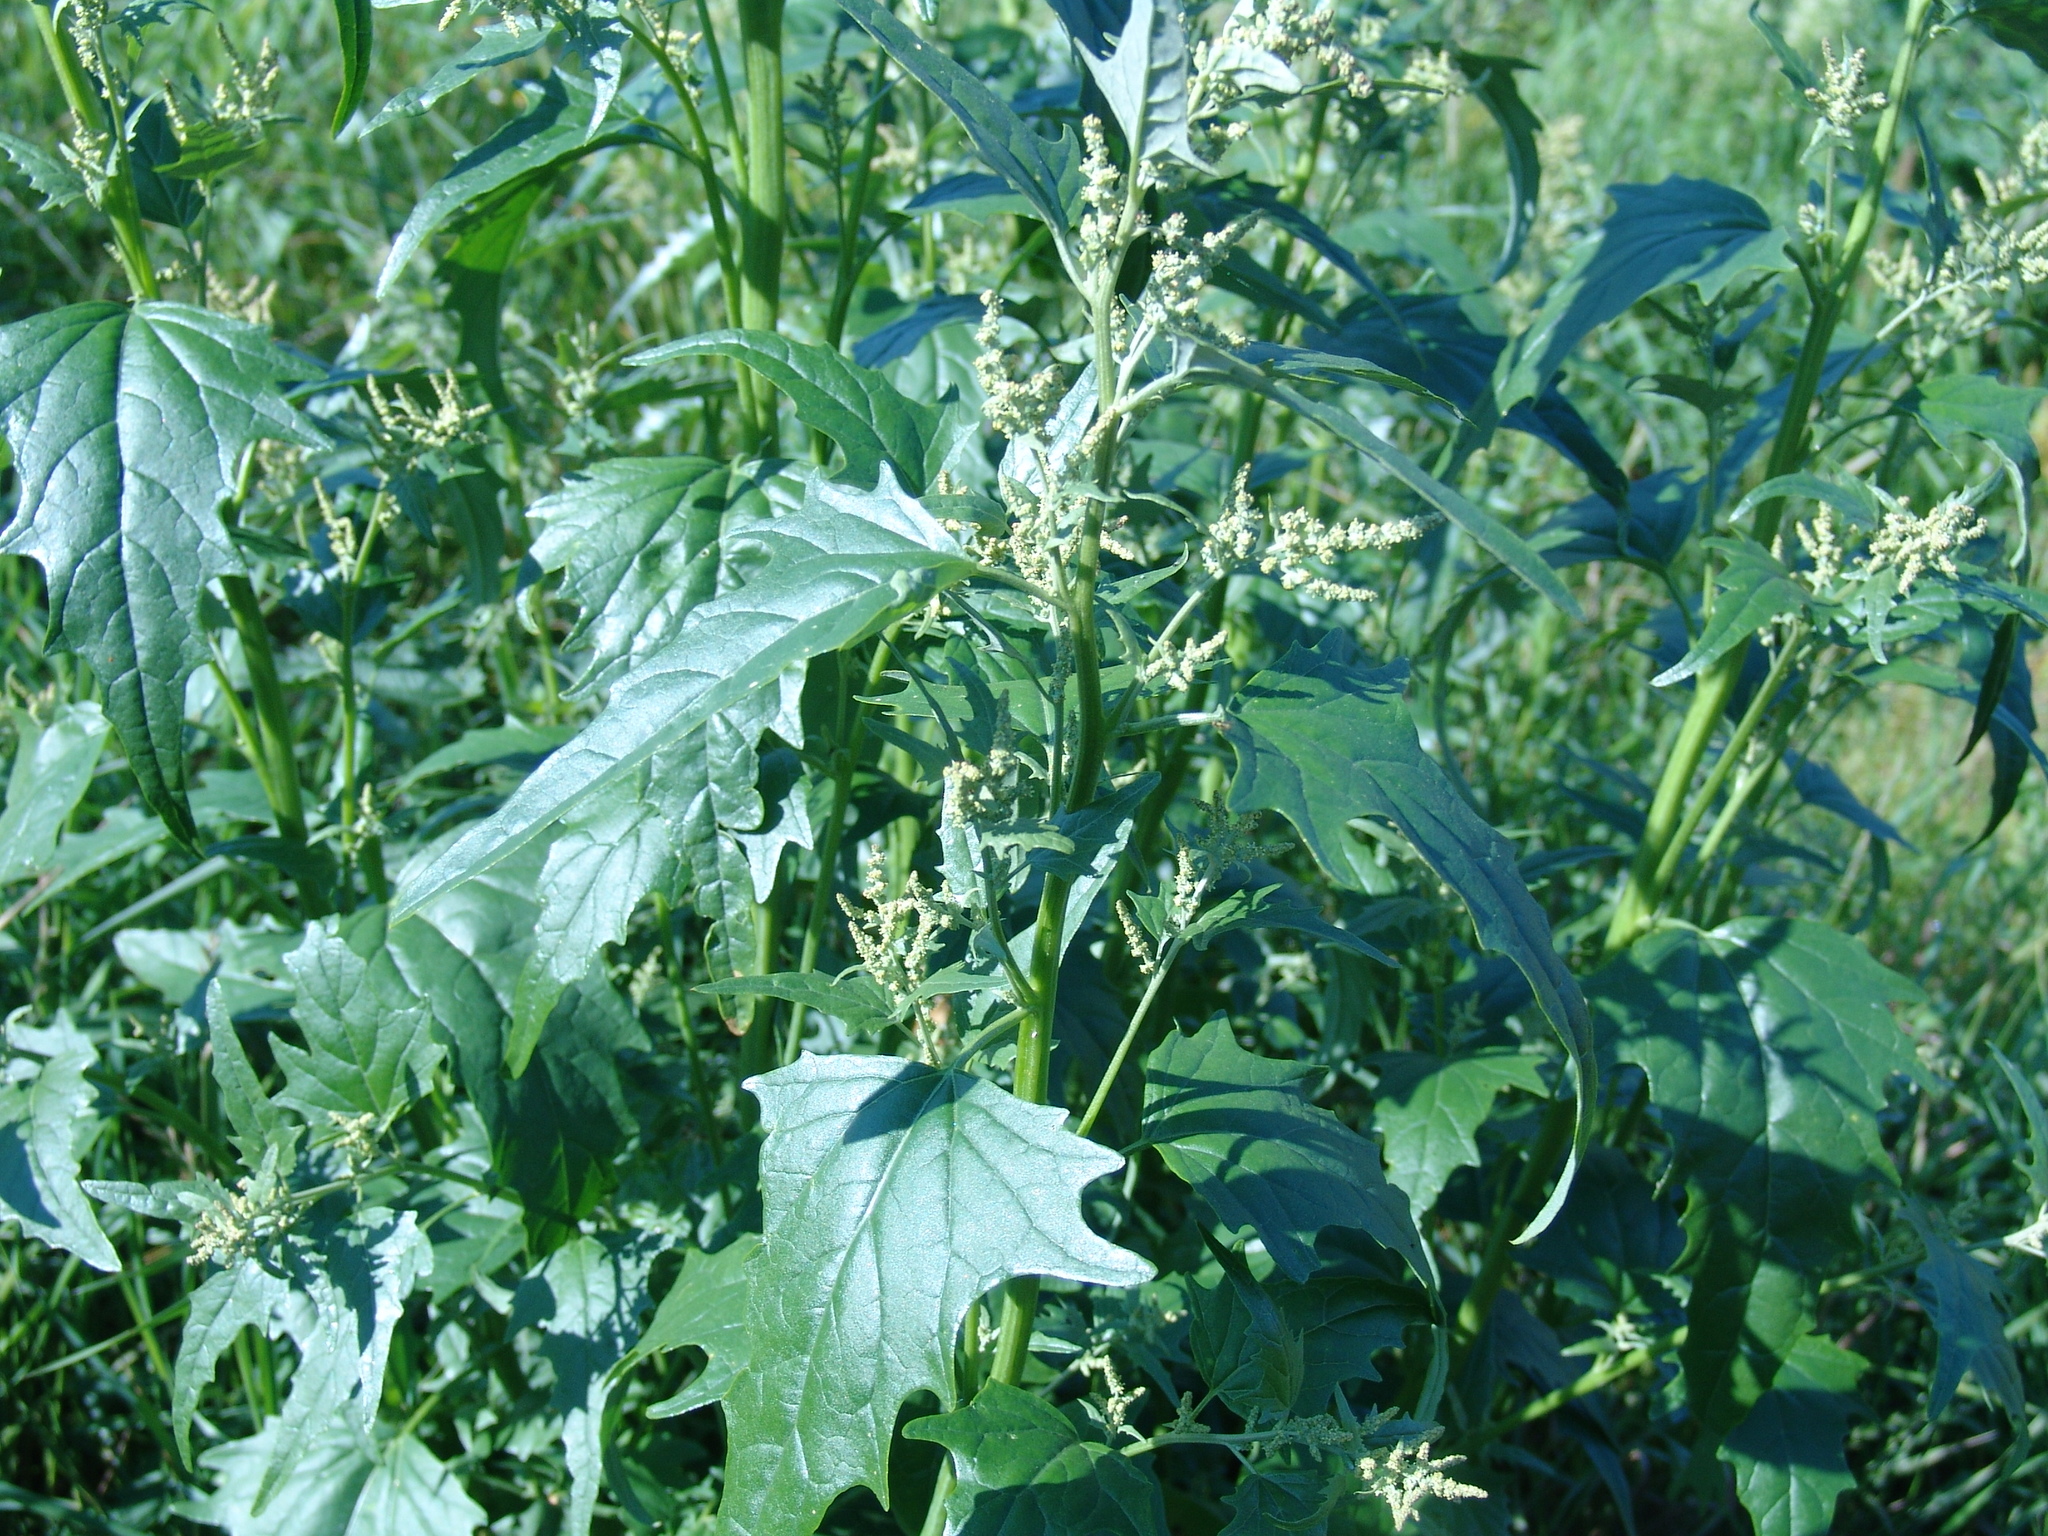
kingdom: Plantae
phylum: Tracheophyta
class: Magnoliopsida
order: Caryophyllales
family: Amaranthaceae
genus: Atriplex
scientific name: Atriplex sagittata
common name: Purple orache
